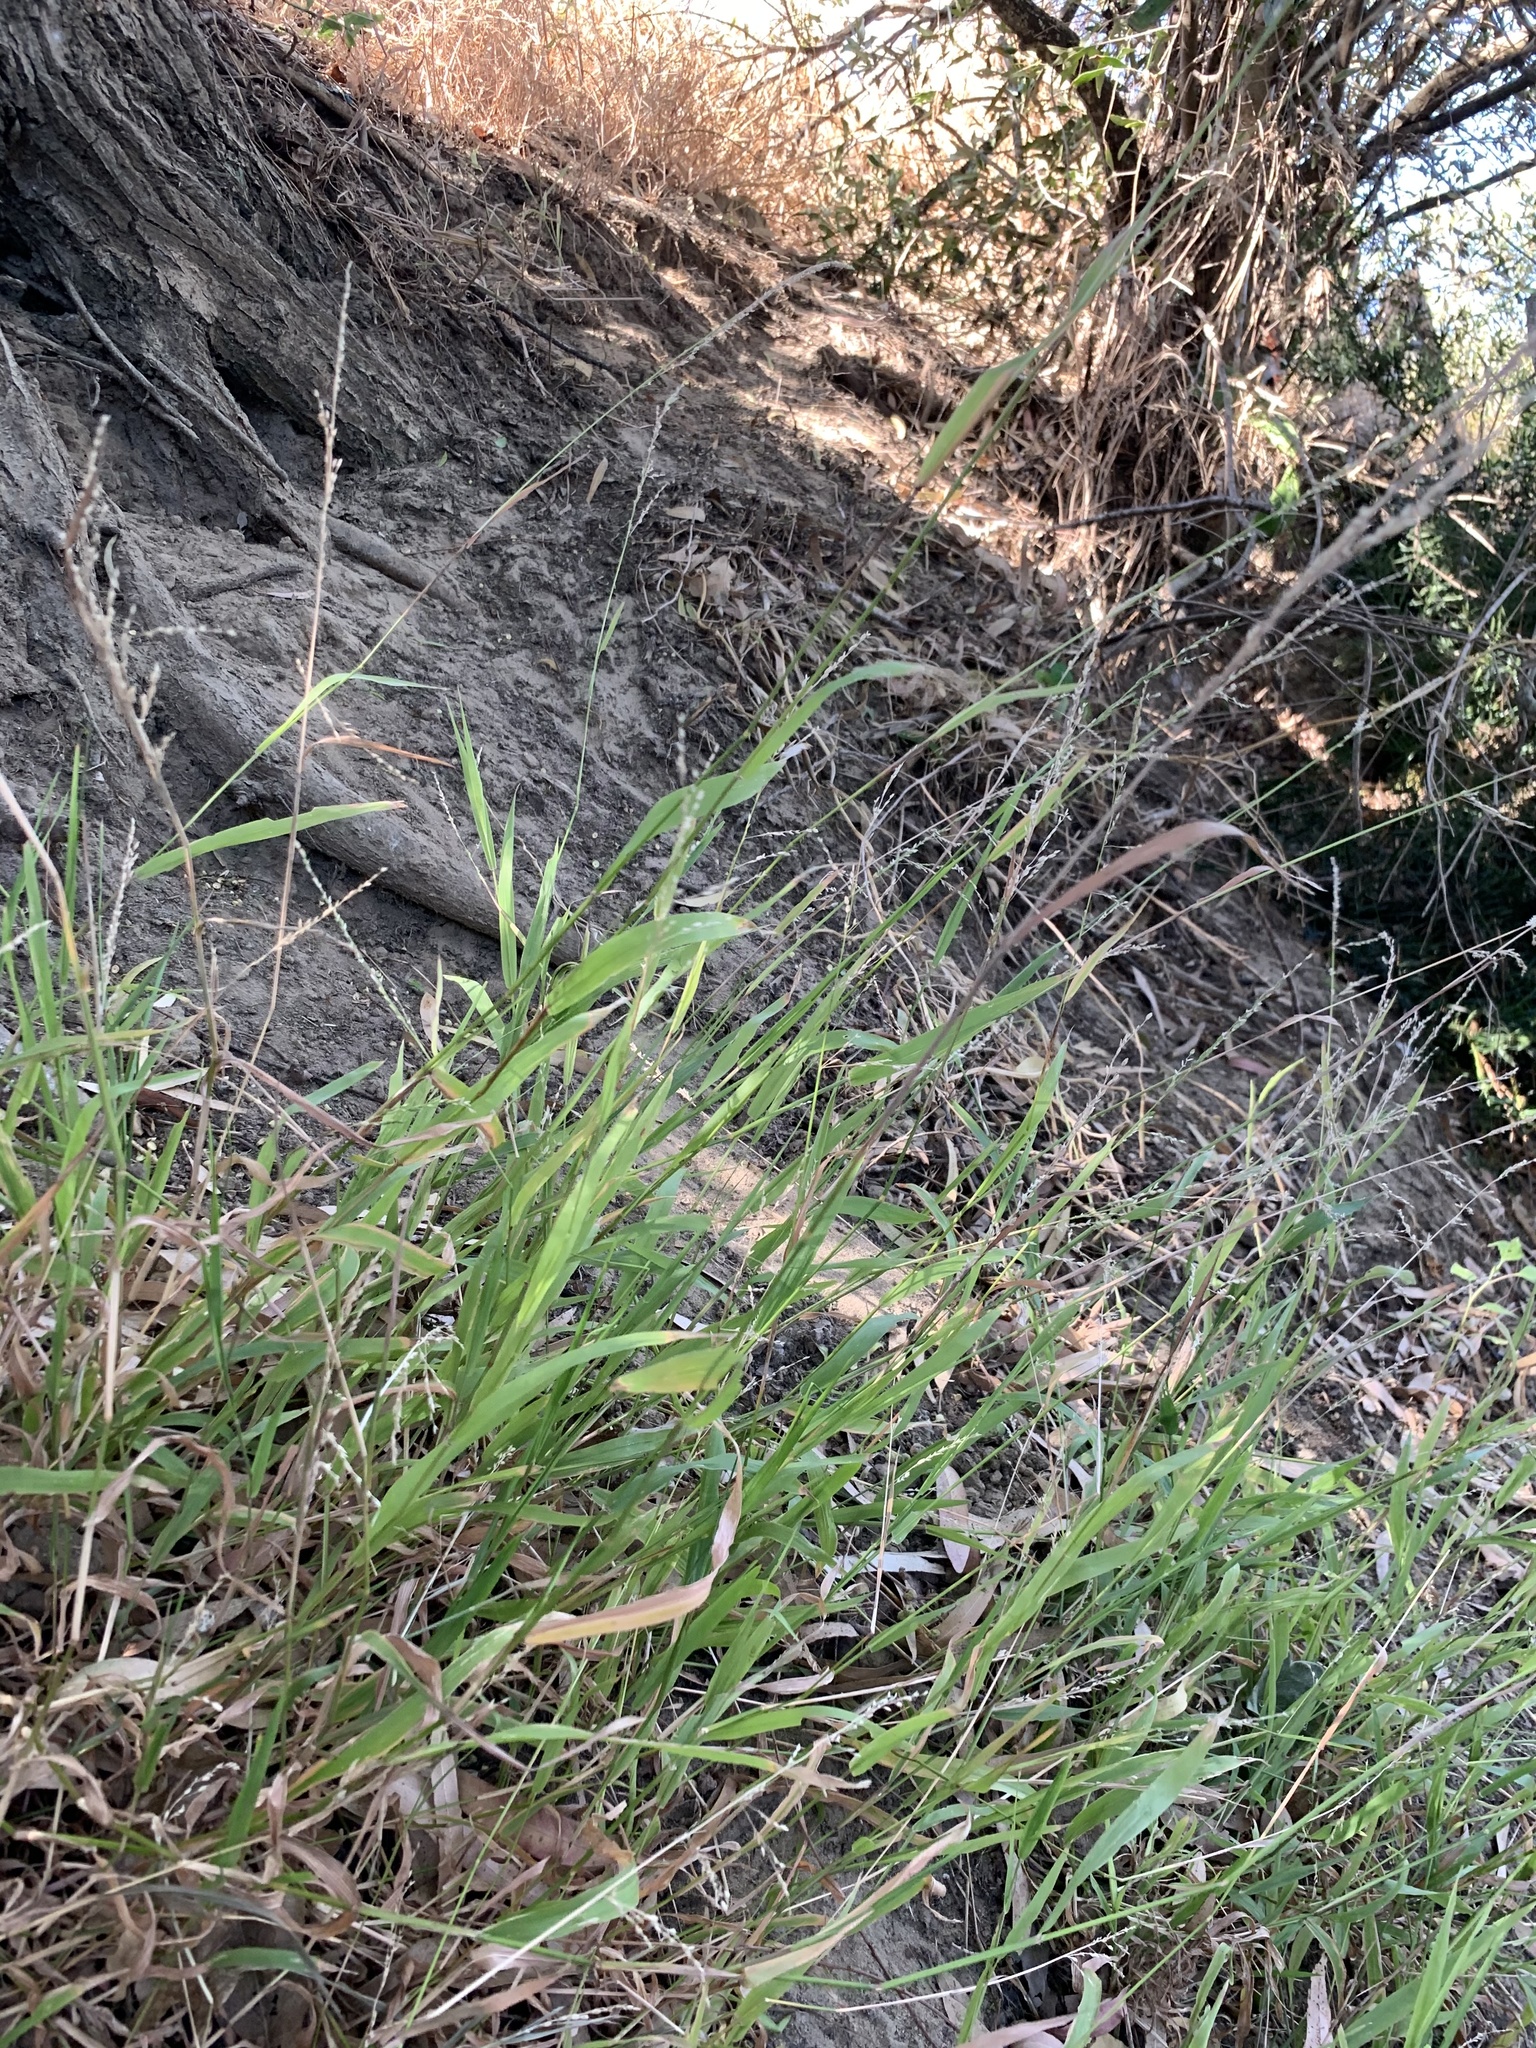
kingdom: Plantae
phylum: Tracheophyta
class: Liliopsida
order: Poales
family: Poaceae
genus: Ehrharta
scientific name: Ehrharta erecta
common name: Panic veldtgrass
